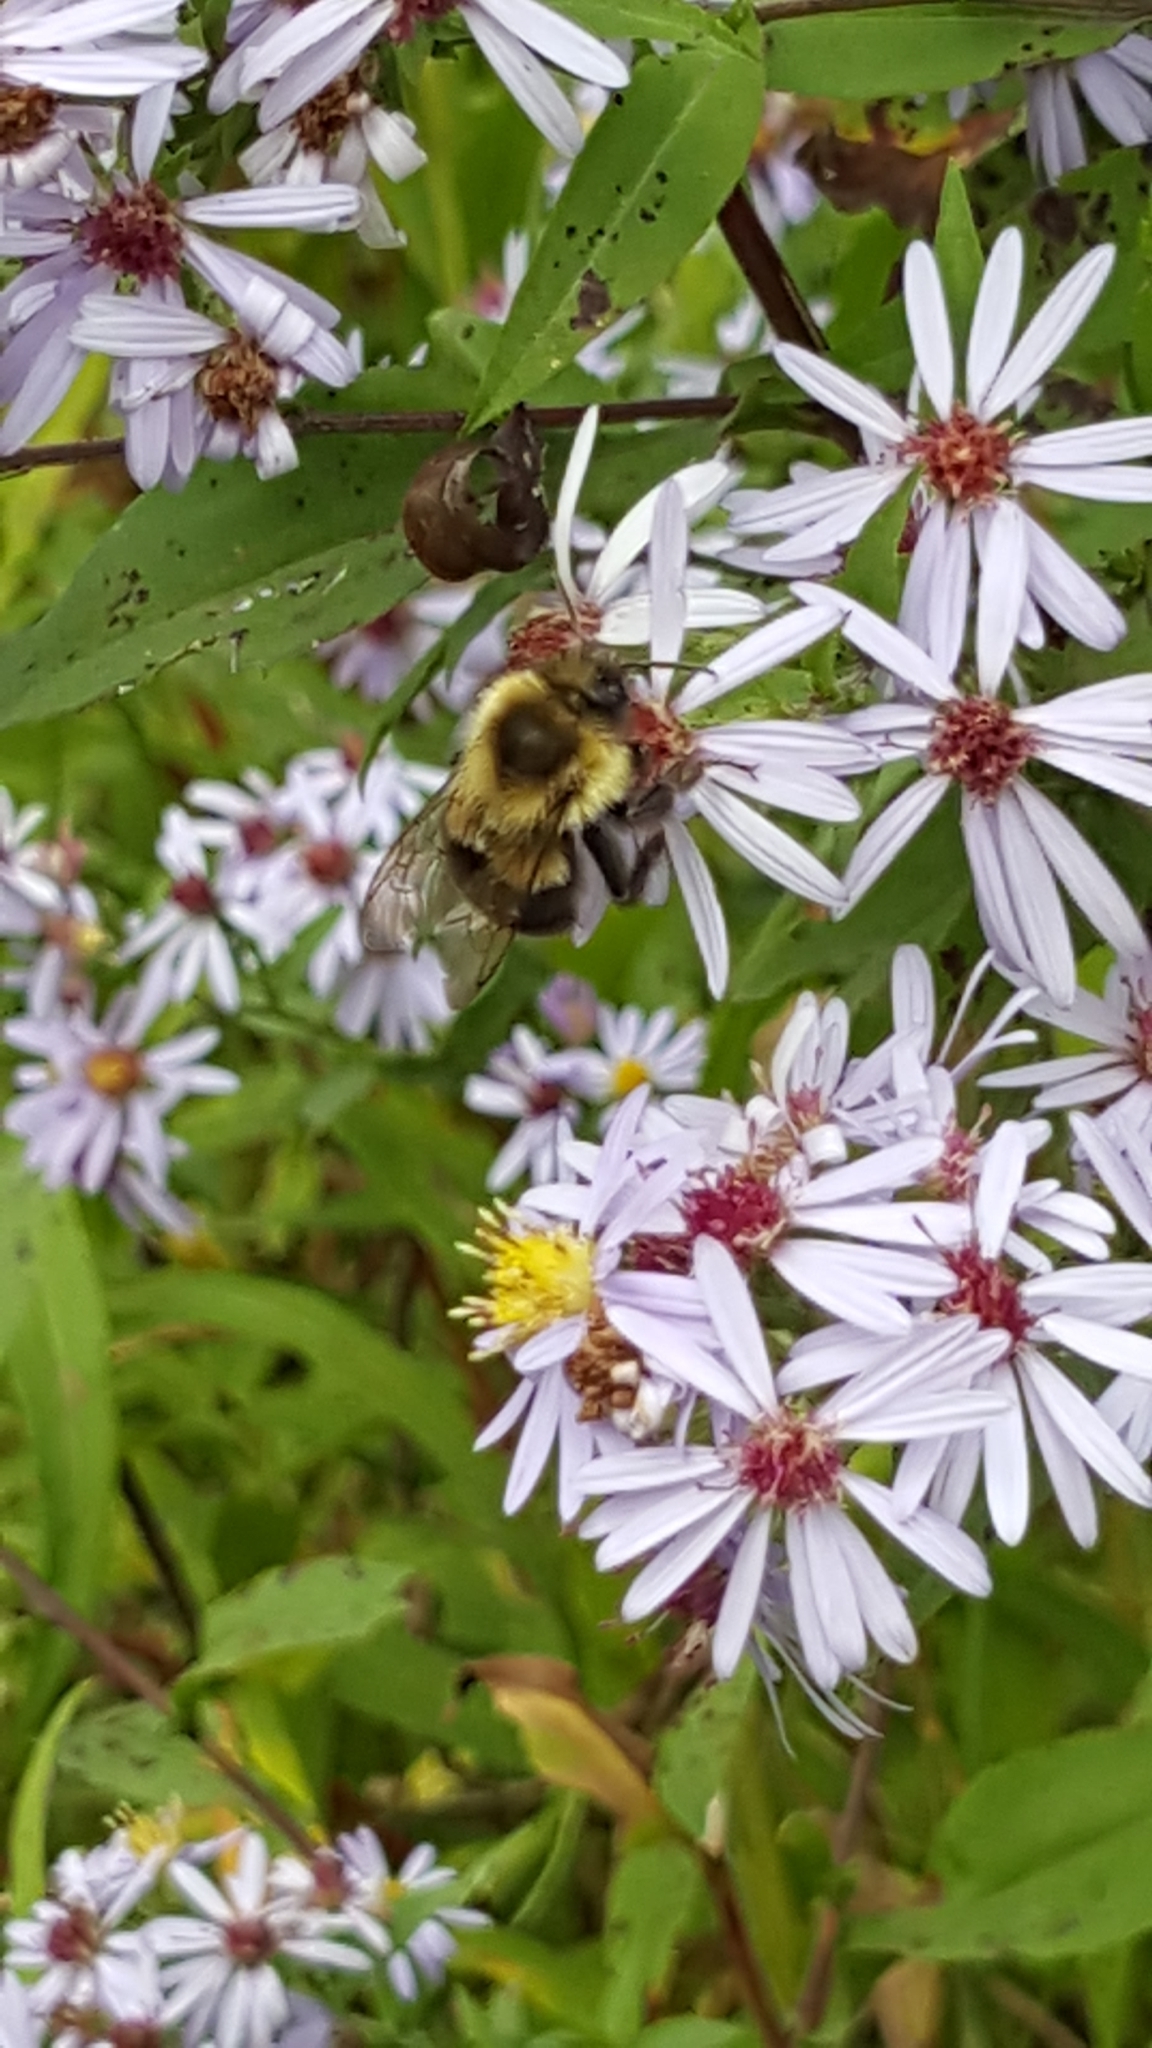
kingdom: Animalia
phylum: Arthropoda
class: Insecta
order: Hymenoptera
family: Apidae
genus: Bombus
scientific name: Bombus impatiens
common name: Common eastern bumble bee
